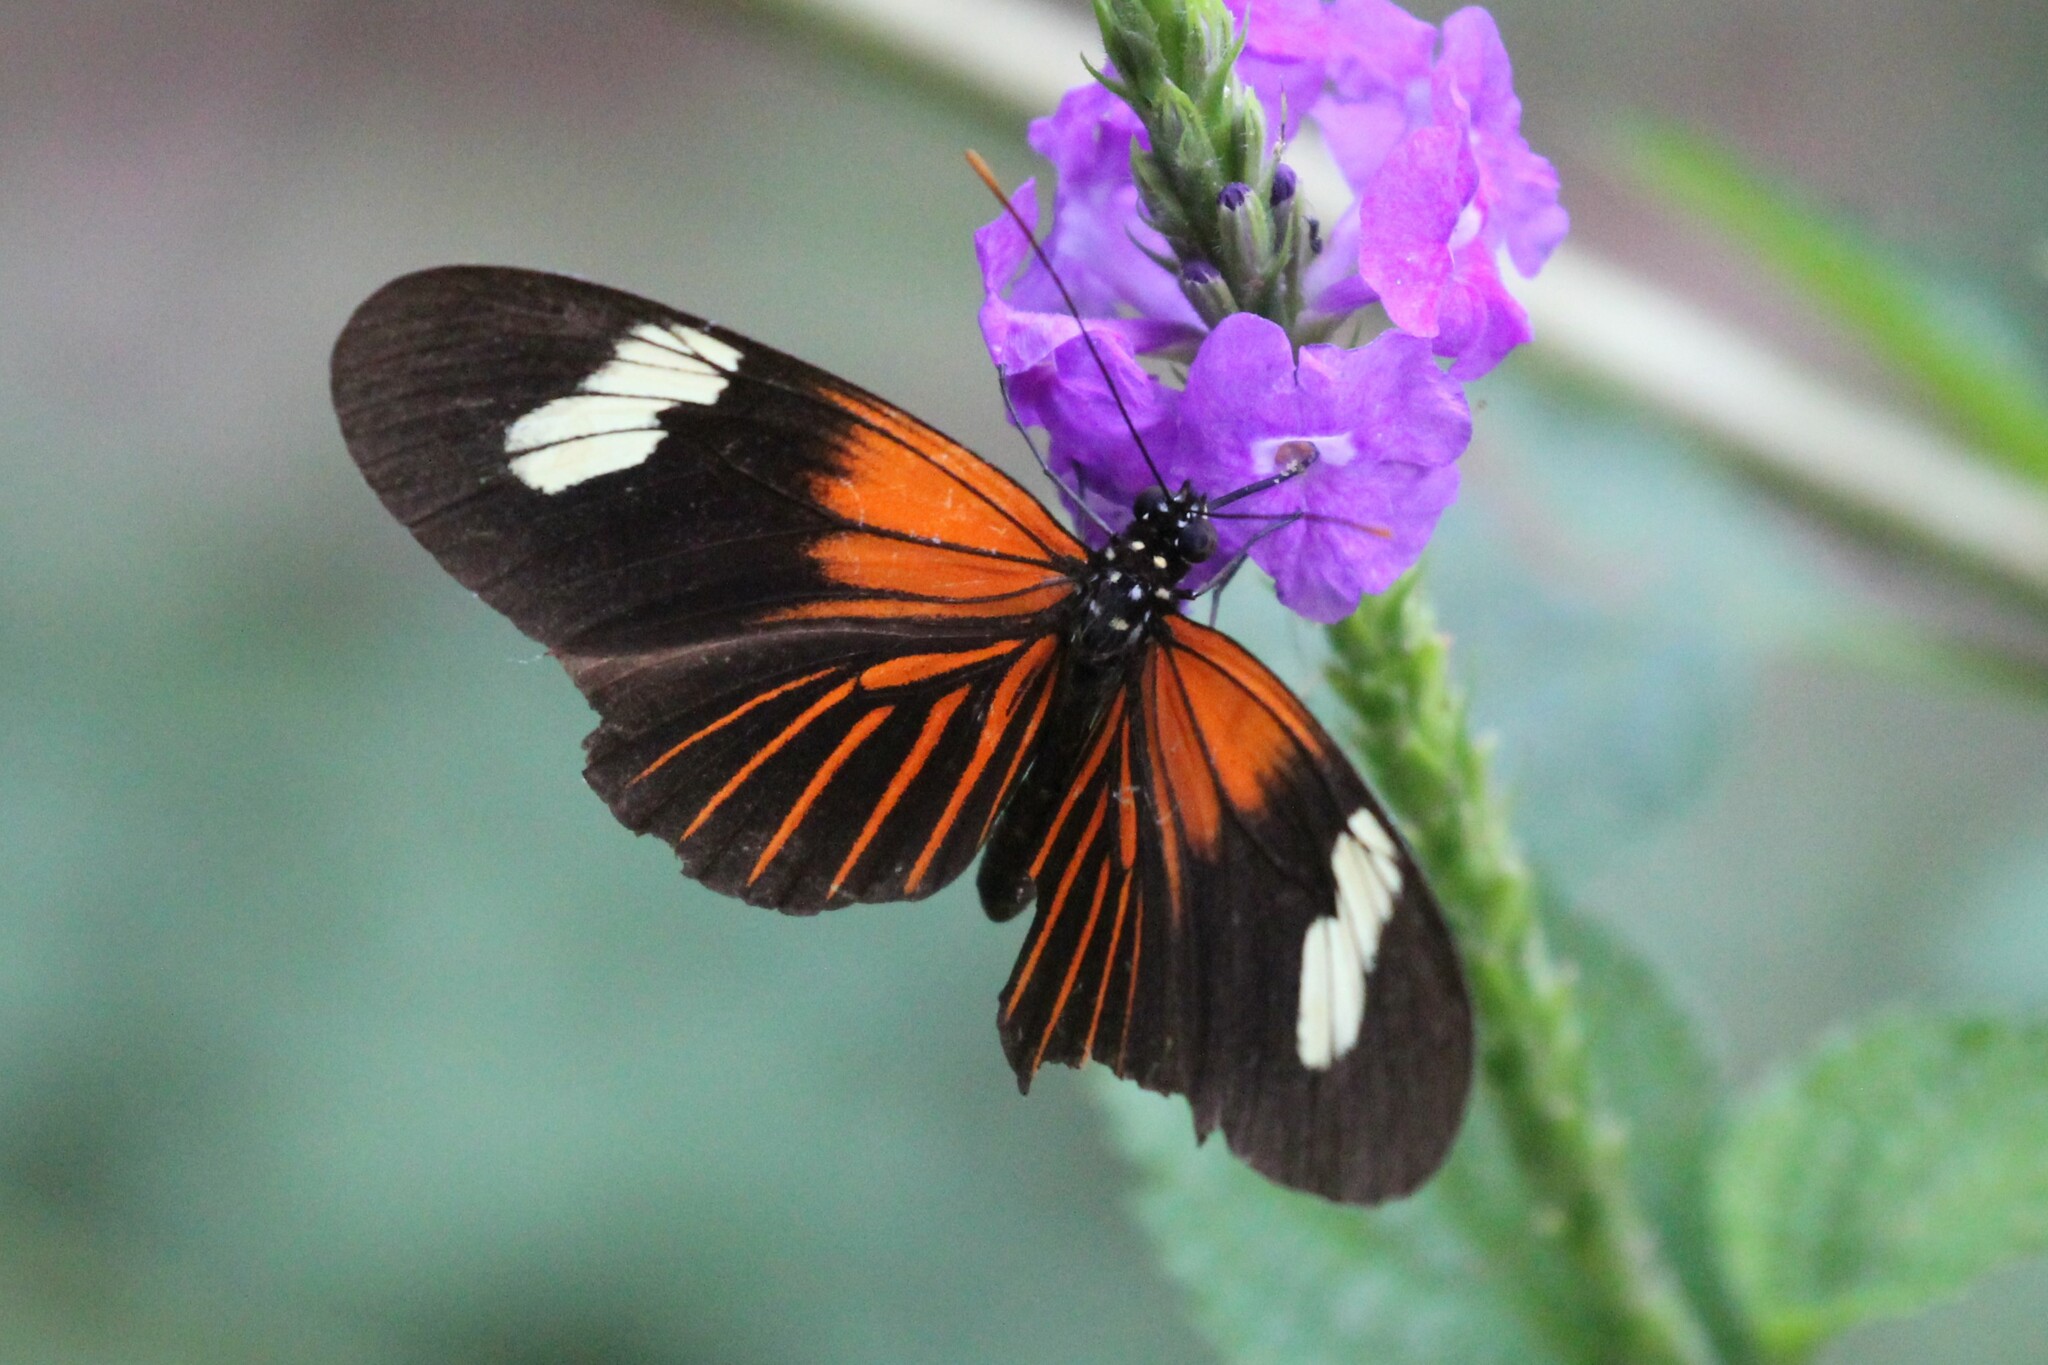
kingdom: Animalia
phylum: Arthropoda
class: Insecta
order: Lepidoptera
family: Nymphalidae
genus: Heliconius
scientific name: Heliconius erato
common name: Common patch longwing
